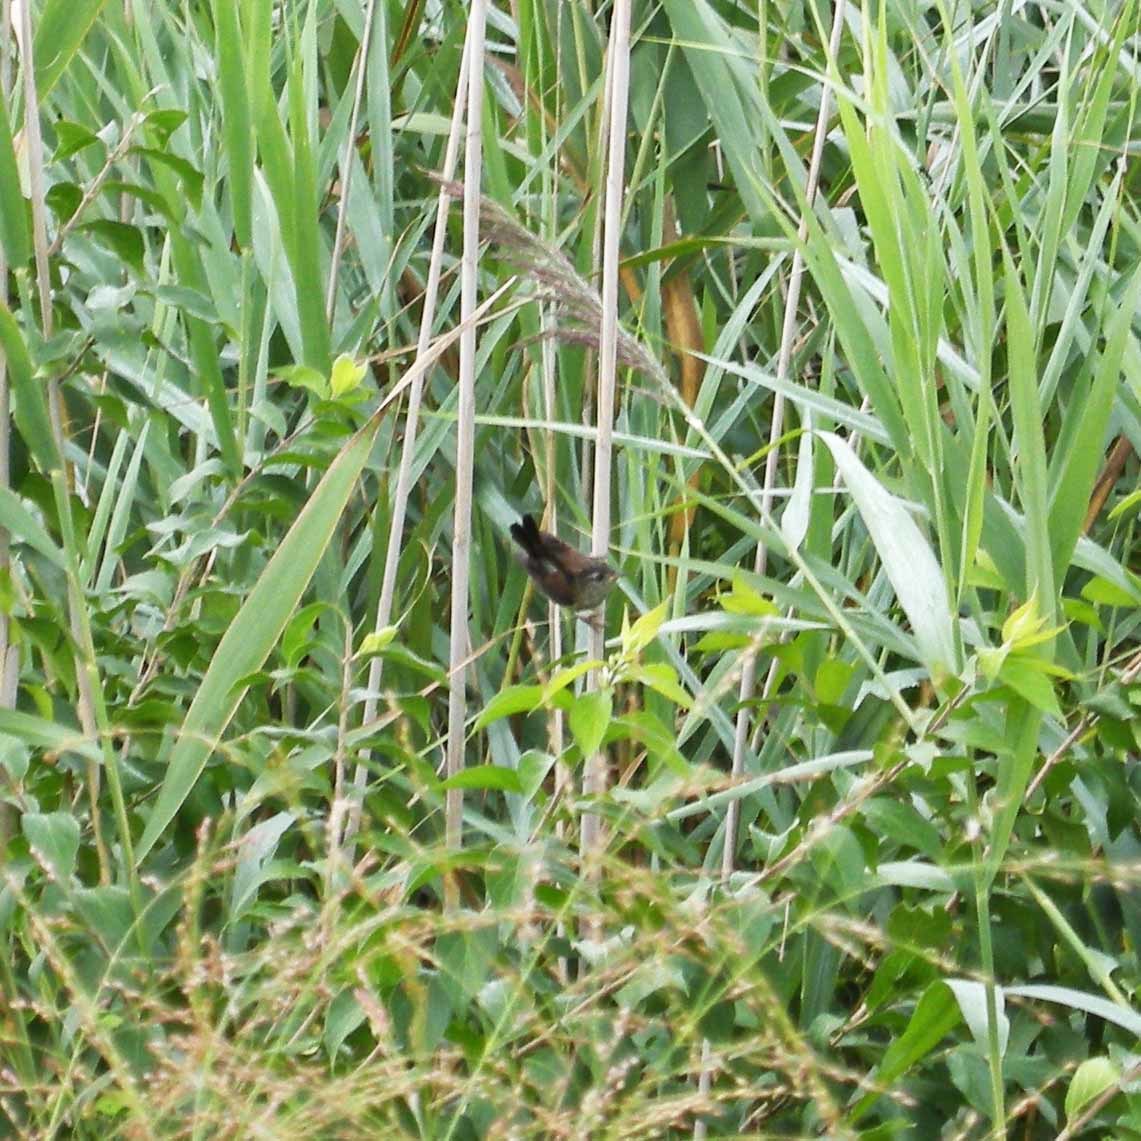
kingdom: Animalia
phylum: Chordata
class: Aves
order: Passeriformes
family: Troglodytidae
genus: Cistothorus
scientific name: Cistothorus palustris
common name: Marsh wren
